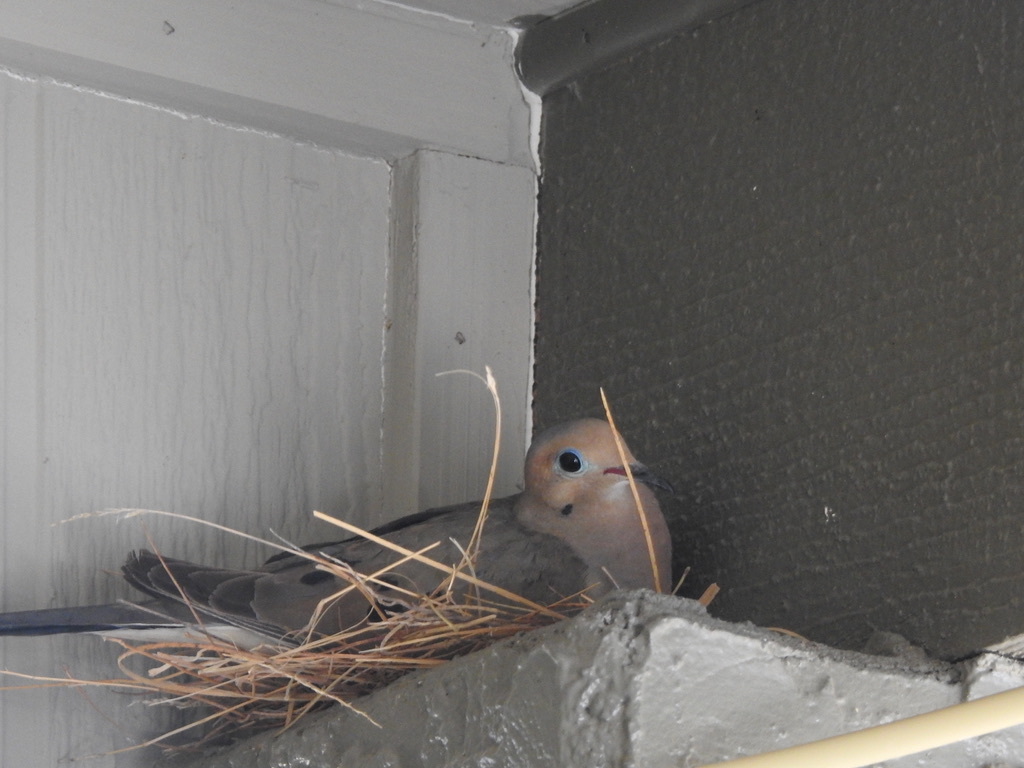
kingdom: Animalia
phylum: Chordata
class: Aves
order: Columbiformes
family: Columbidae
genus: Zenaida
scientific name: Zenaida macroura
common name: Mourning dove
